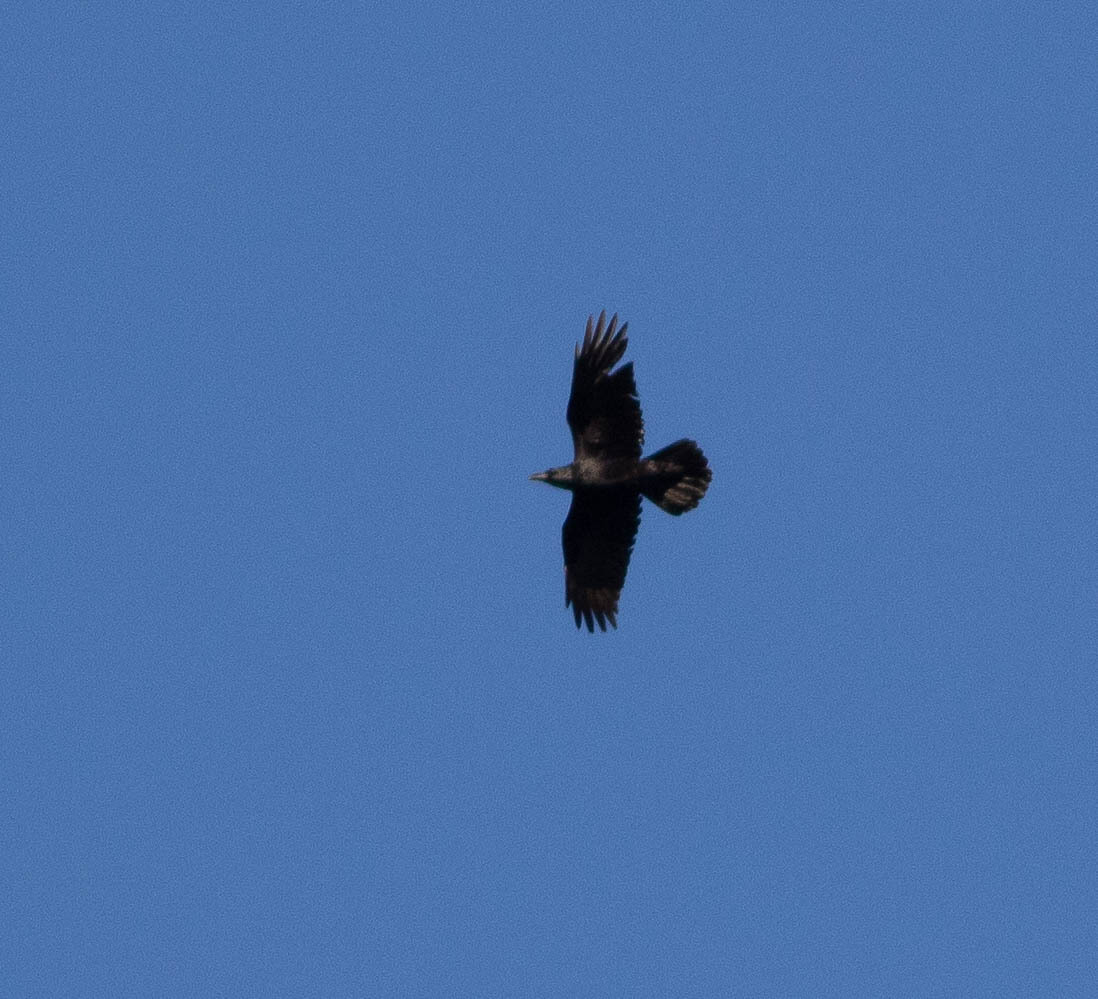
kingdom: Animalia
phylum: Chordata
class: Aves
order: Passeriformes
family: Corvidae
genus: Corvus
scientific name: Corvus corax
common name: Common raven
